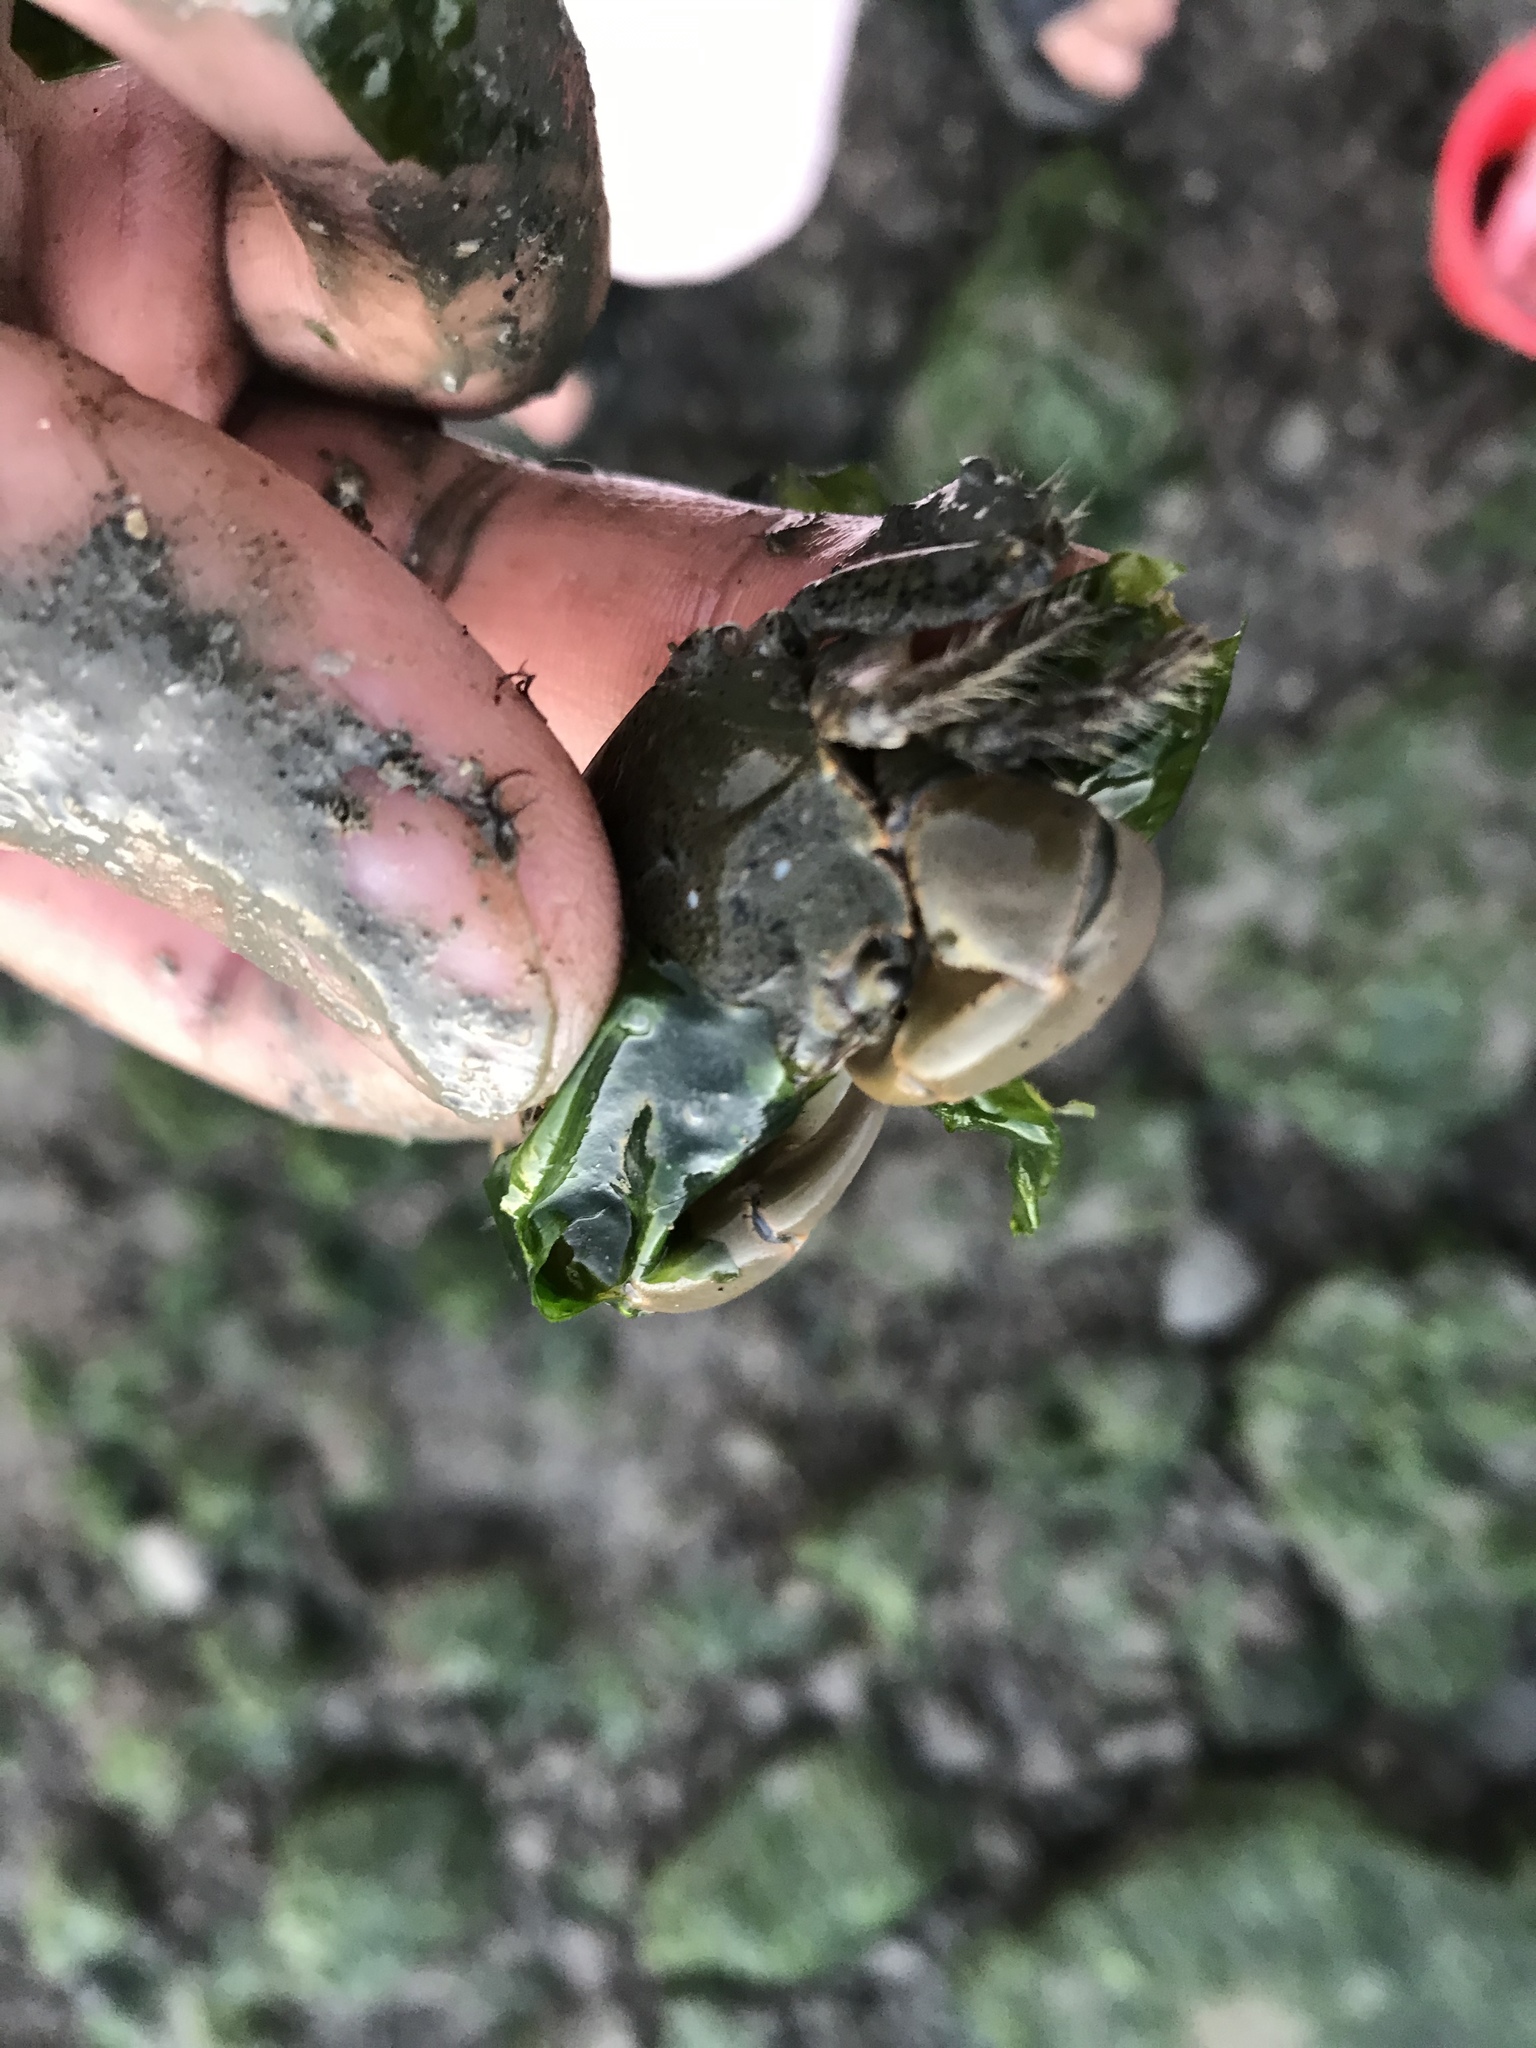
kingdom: Animalia
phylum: Arthropoda
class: Malacostraca
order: Decapoda
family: Varunidae
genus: Hemigrapsus
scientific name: Hemigrapsus oregonensis
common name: Yellow shore crab
